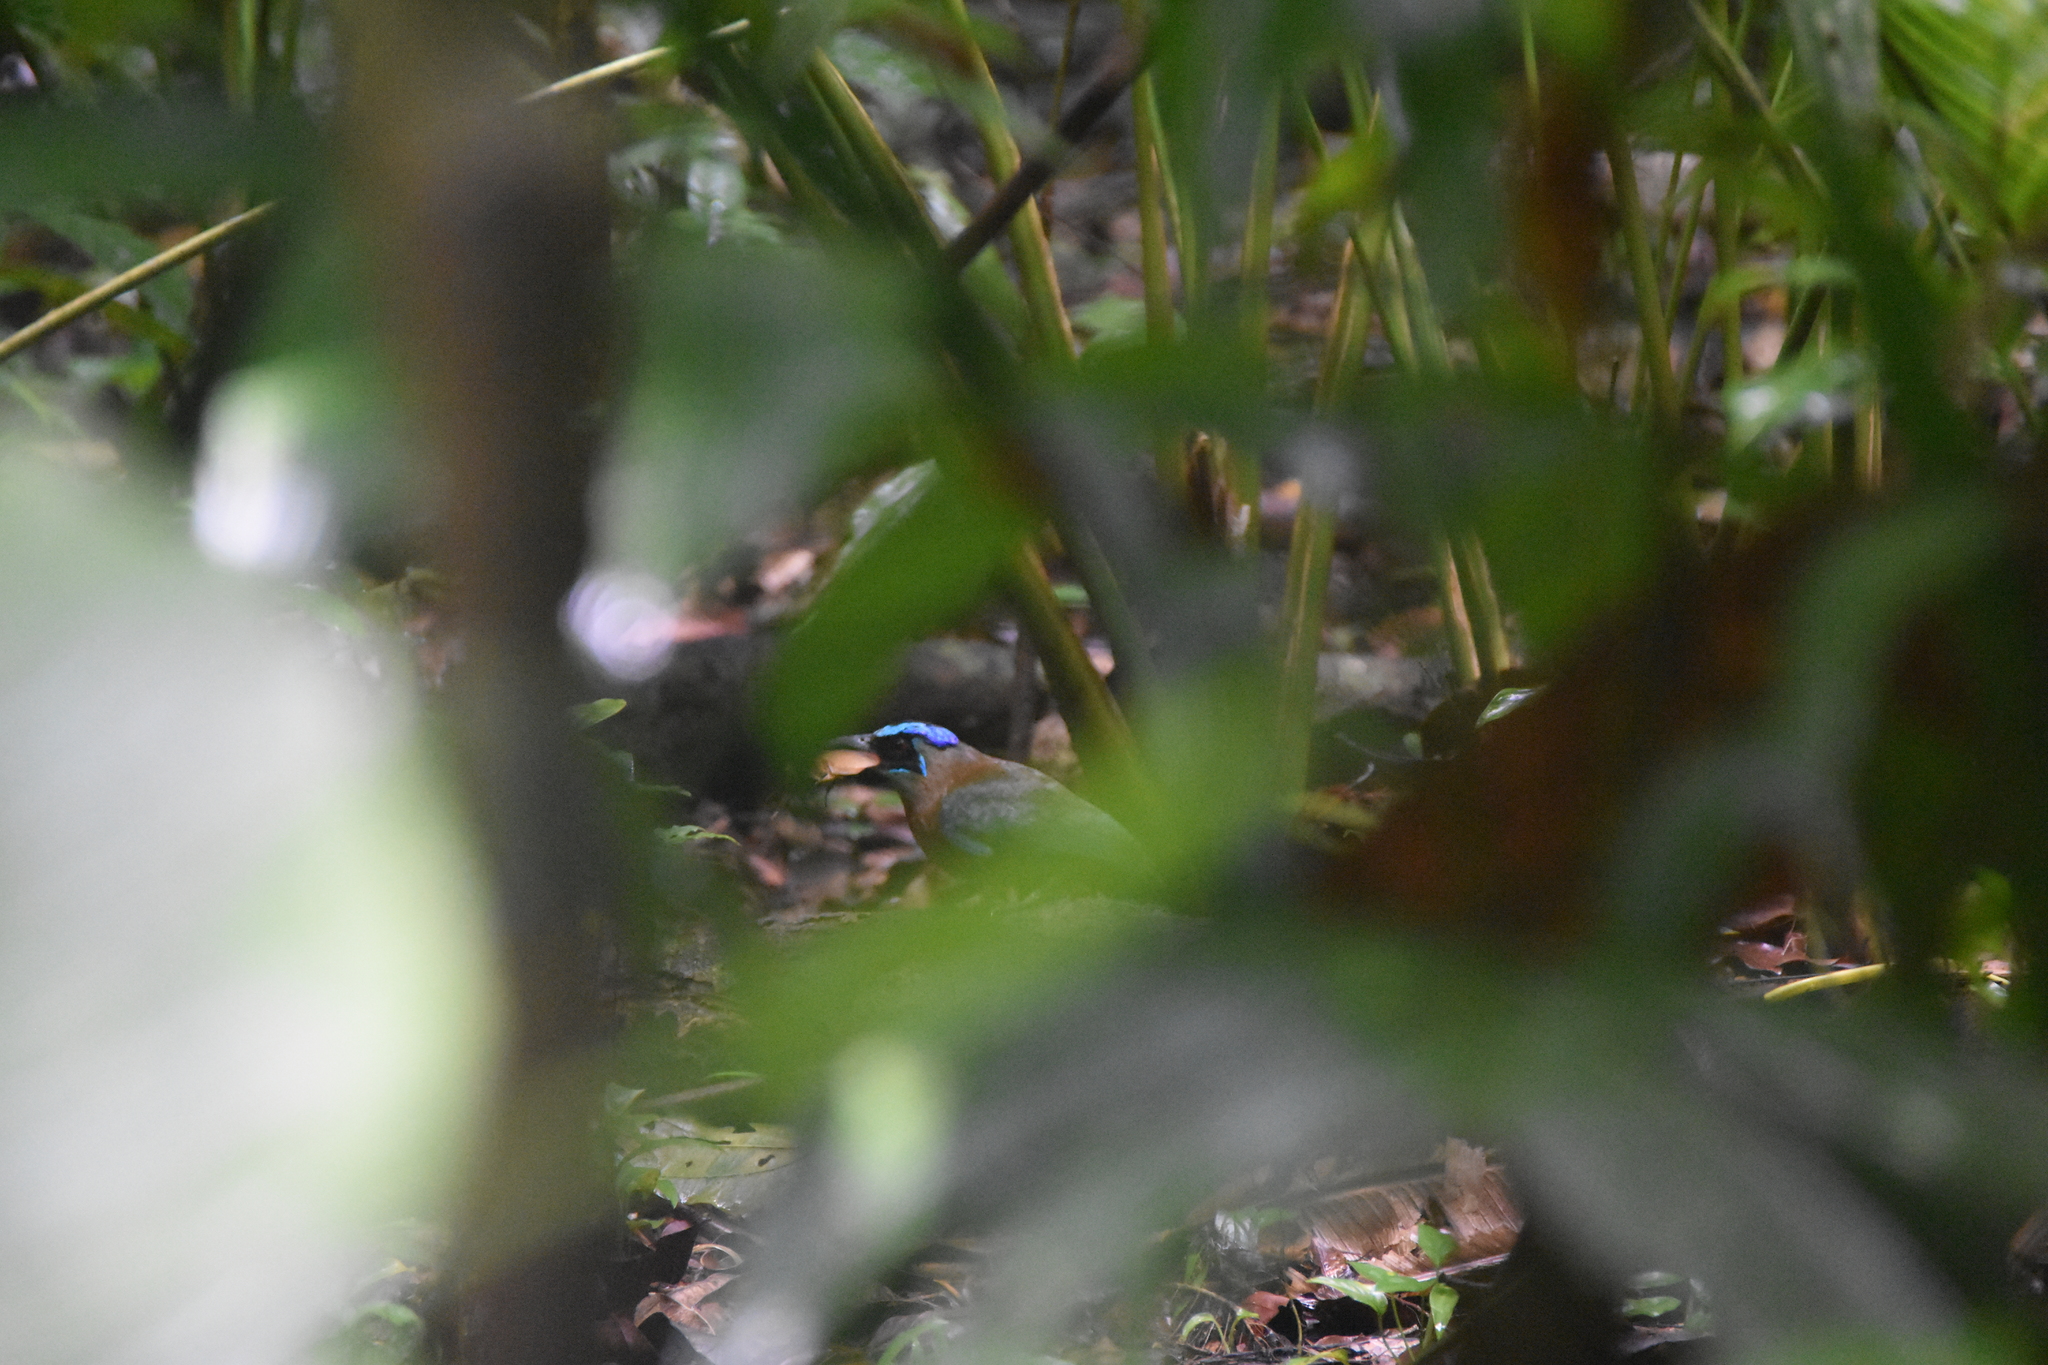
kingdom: Animalia
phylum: Chordata
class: Aves
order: Coraciiformes
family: Momotidae
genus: Momotus
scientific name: Momotus lessonii
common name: Lesson's motmot
